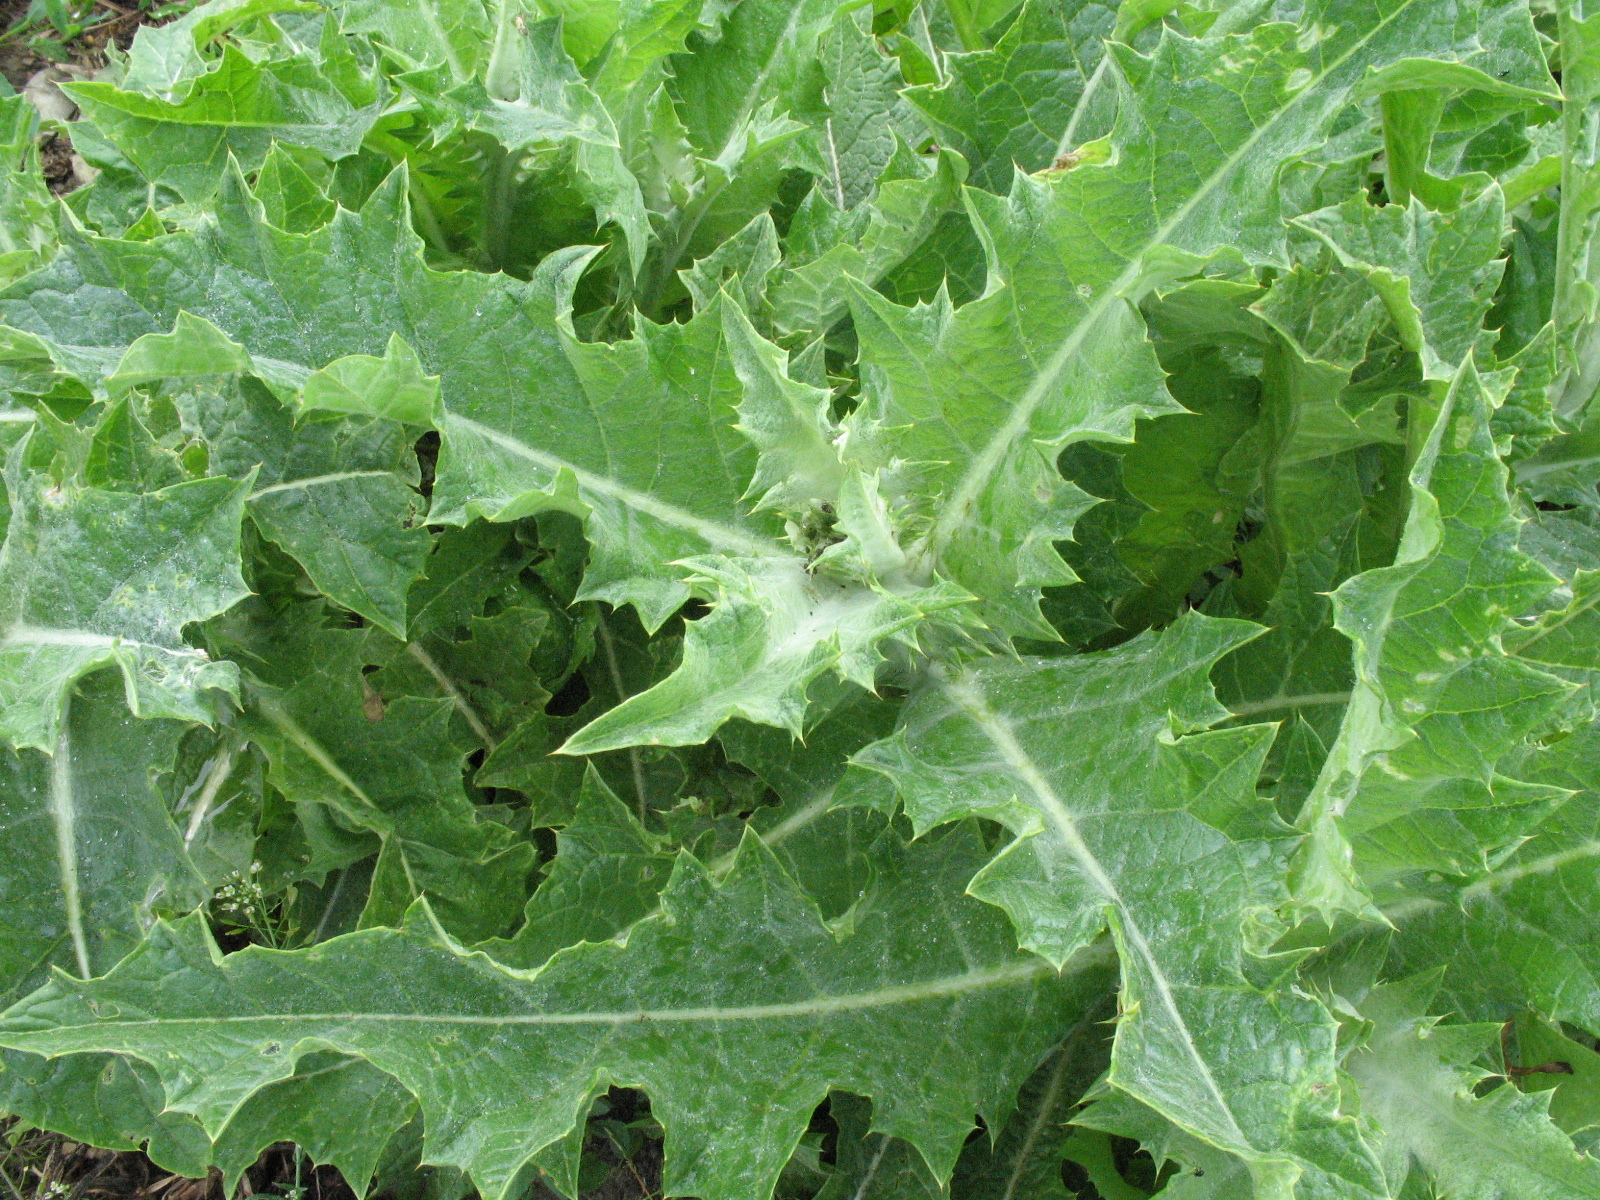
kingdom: Plantae
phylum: Tracheophyta
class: Magnoliopsida
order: Asterales
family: Asteraceae
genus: Onopordum
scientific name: Onopordum acanthium
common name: Scotch thistle
